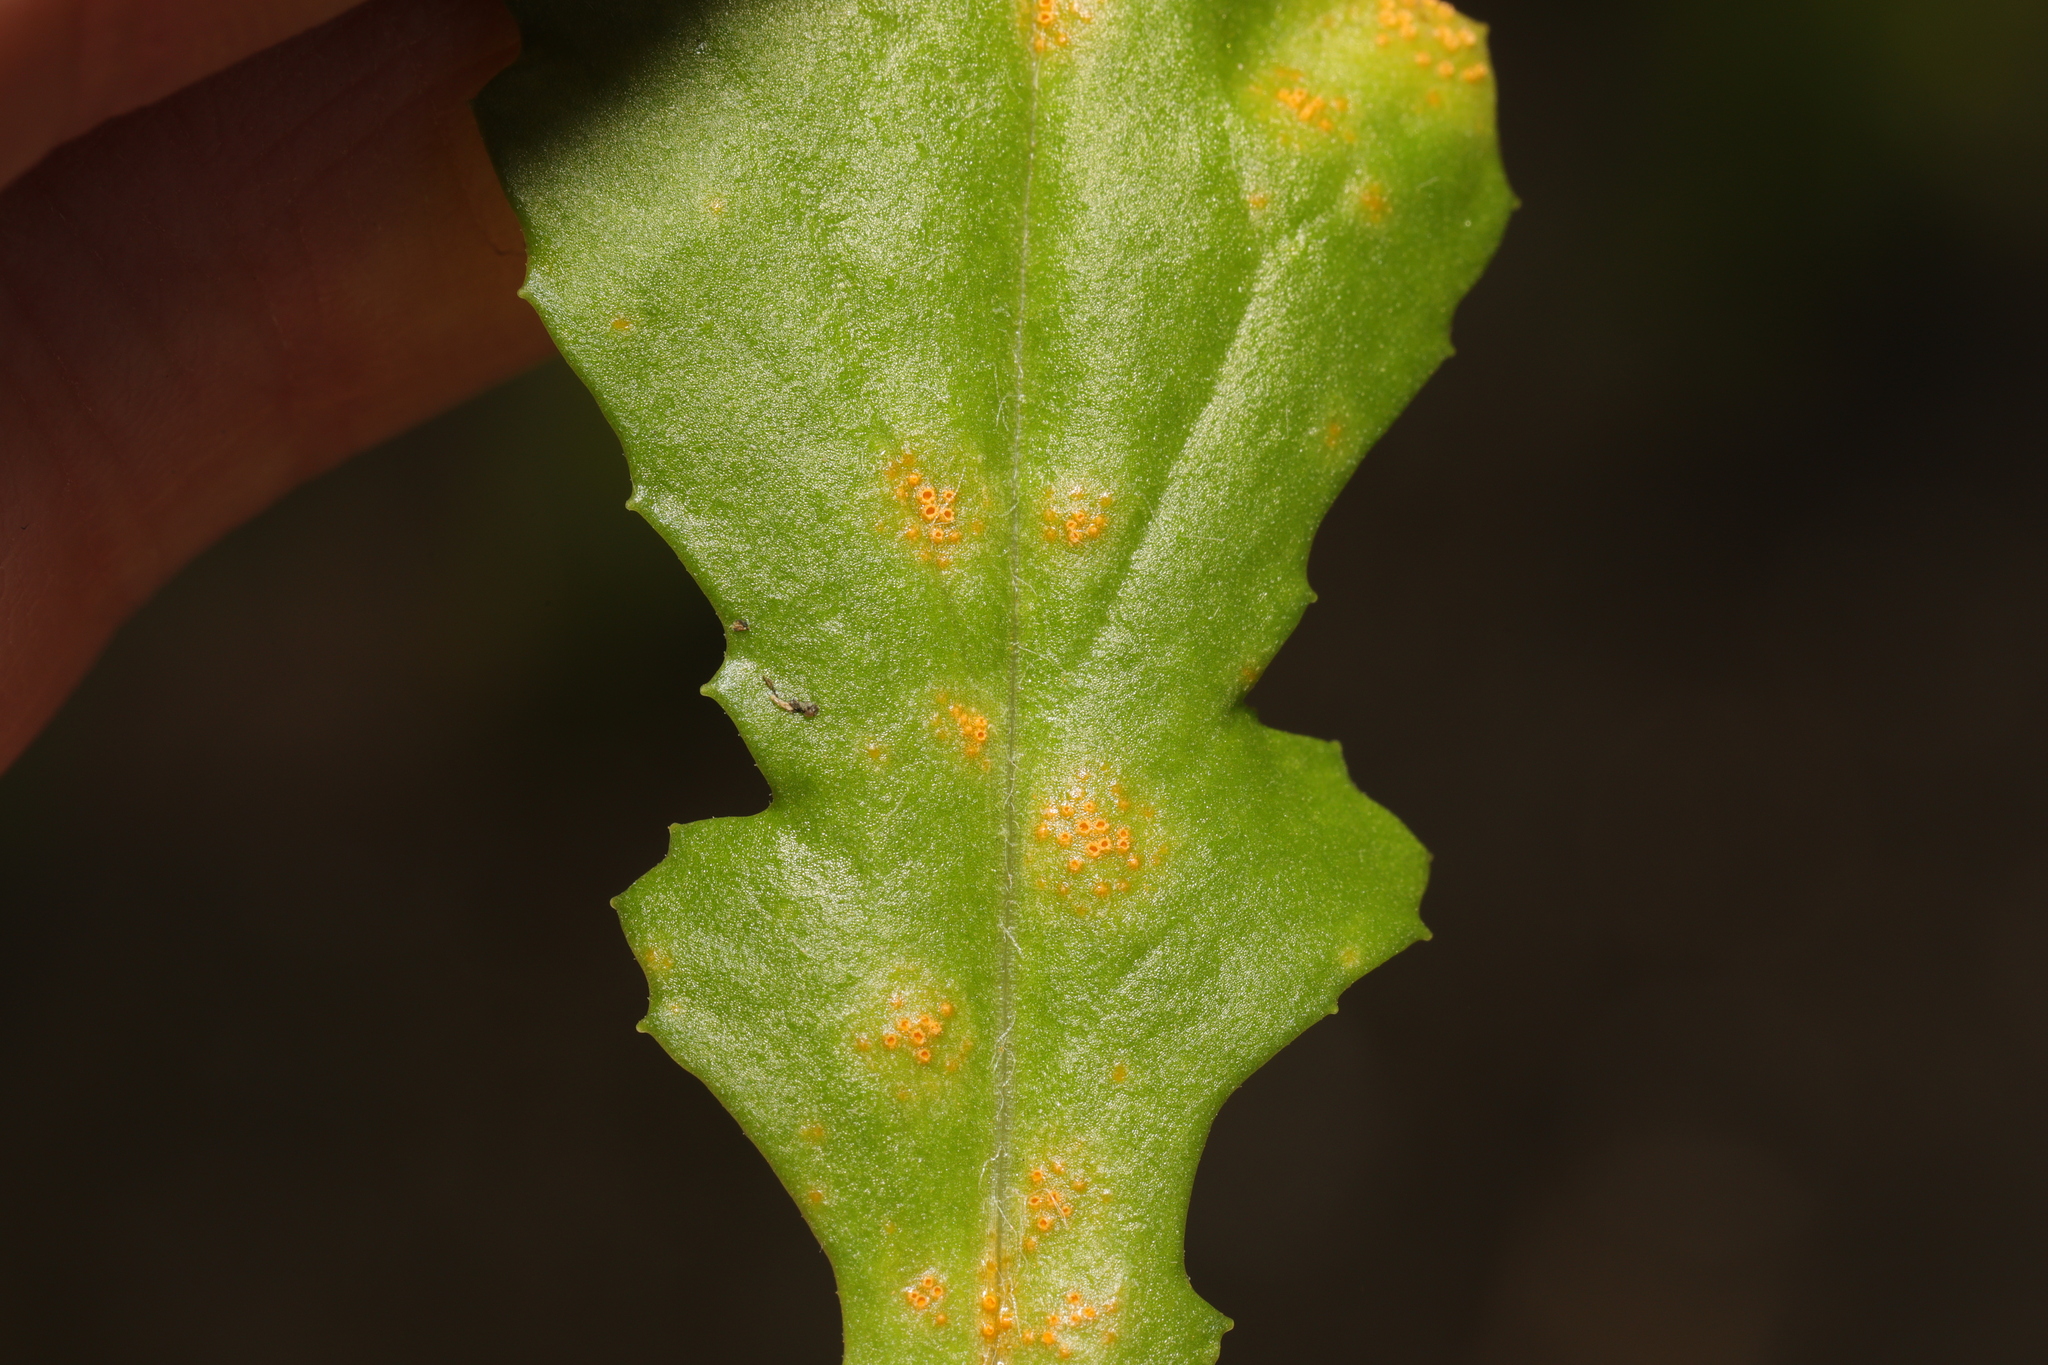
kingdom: Fungi
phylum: Basidiomycota
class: Pucciniomycetes
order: Pucciniales
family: Pucciniaceae
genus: Puccinia
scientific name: Puccinia lagenophorae
